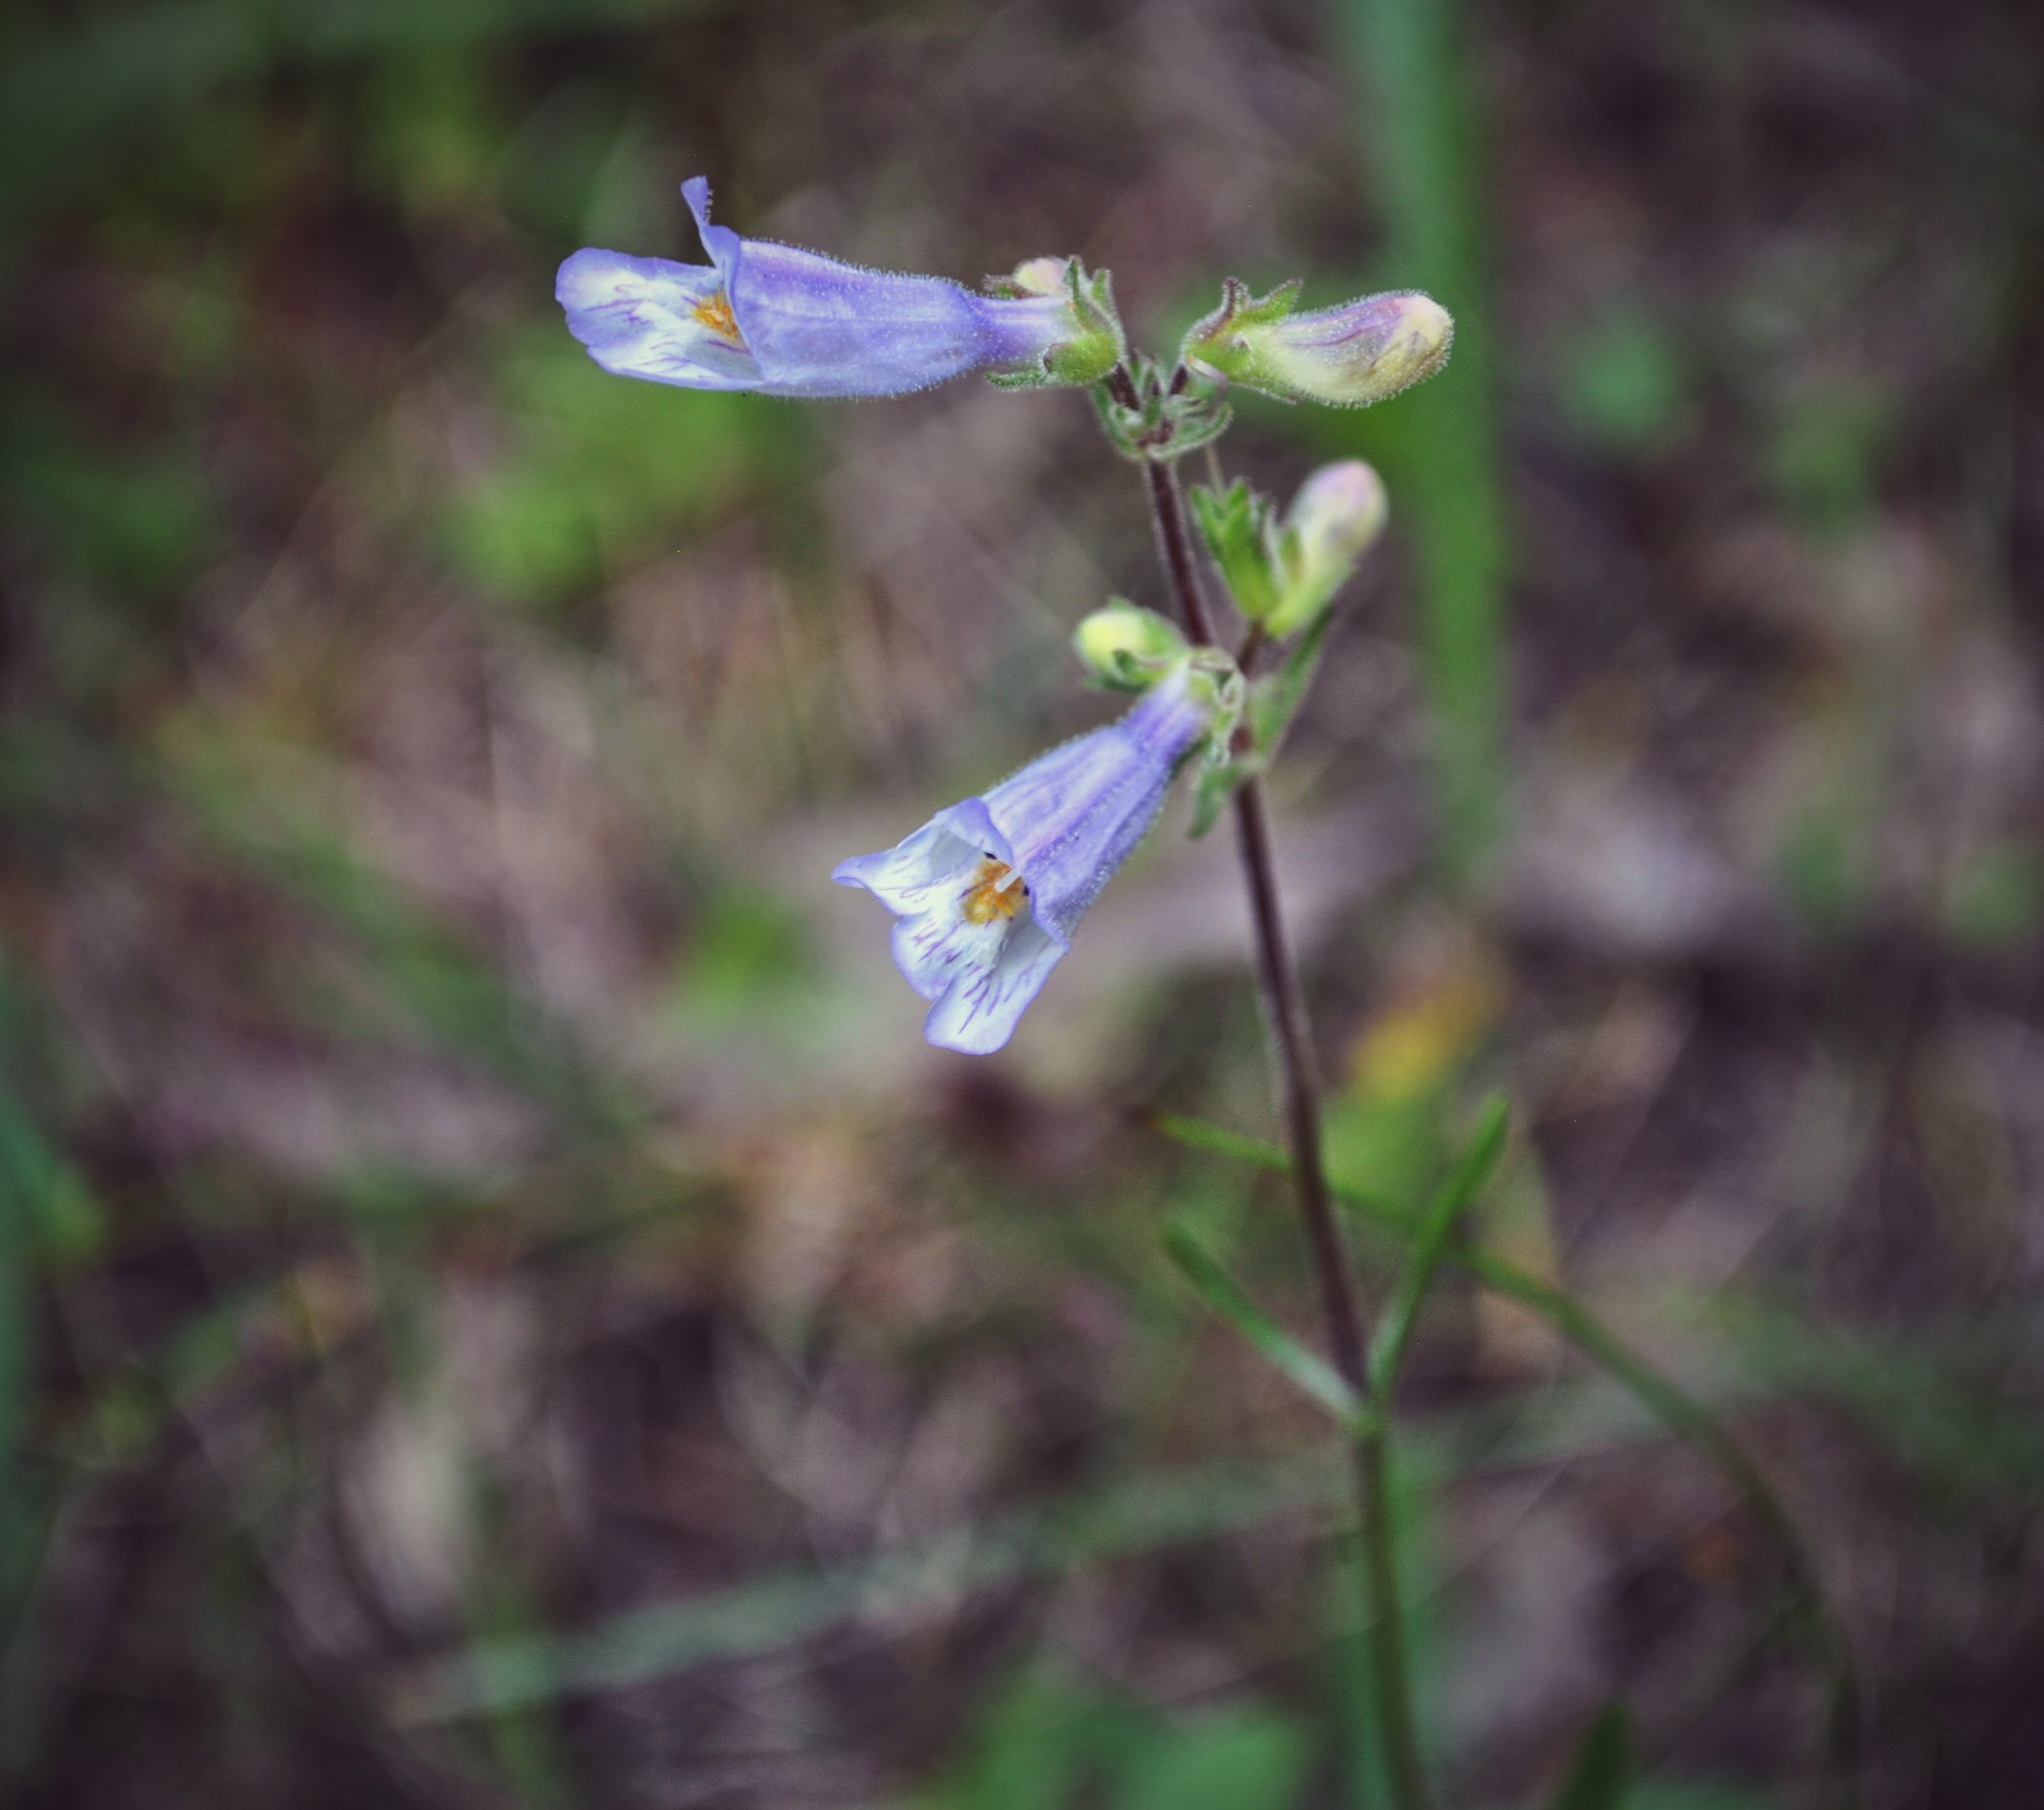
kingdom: Plantae
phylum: Tracheophyta
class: Magnoliopsida
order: Lamiales
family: Plantaginaceae
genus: Penstemon
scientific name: Penstemon gracilis
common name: Slender beardtongue
